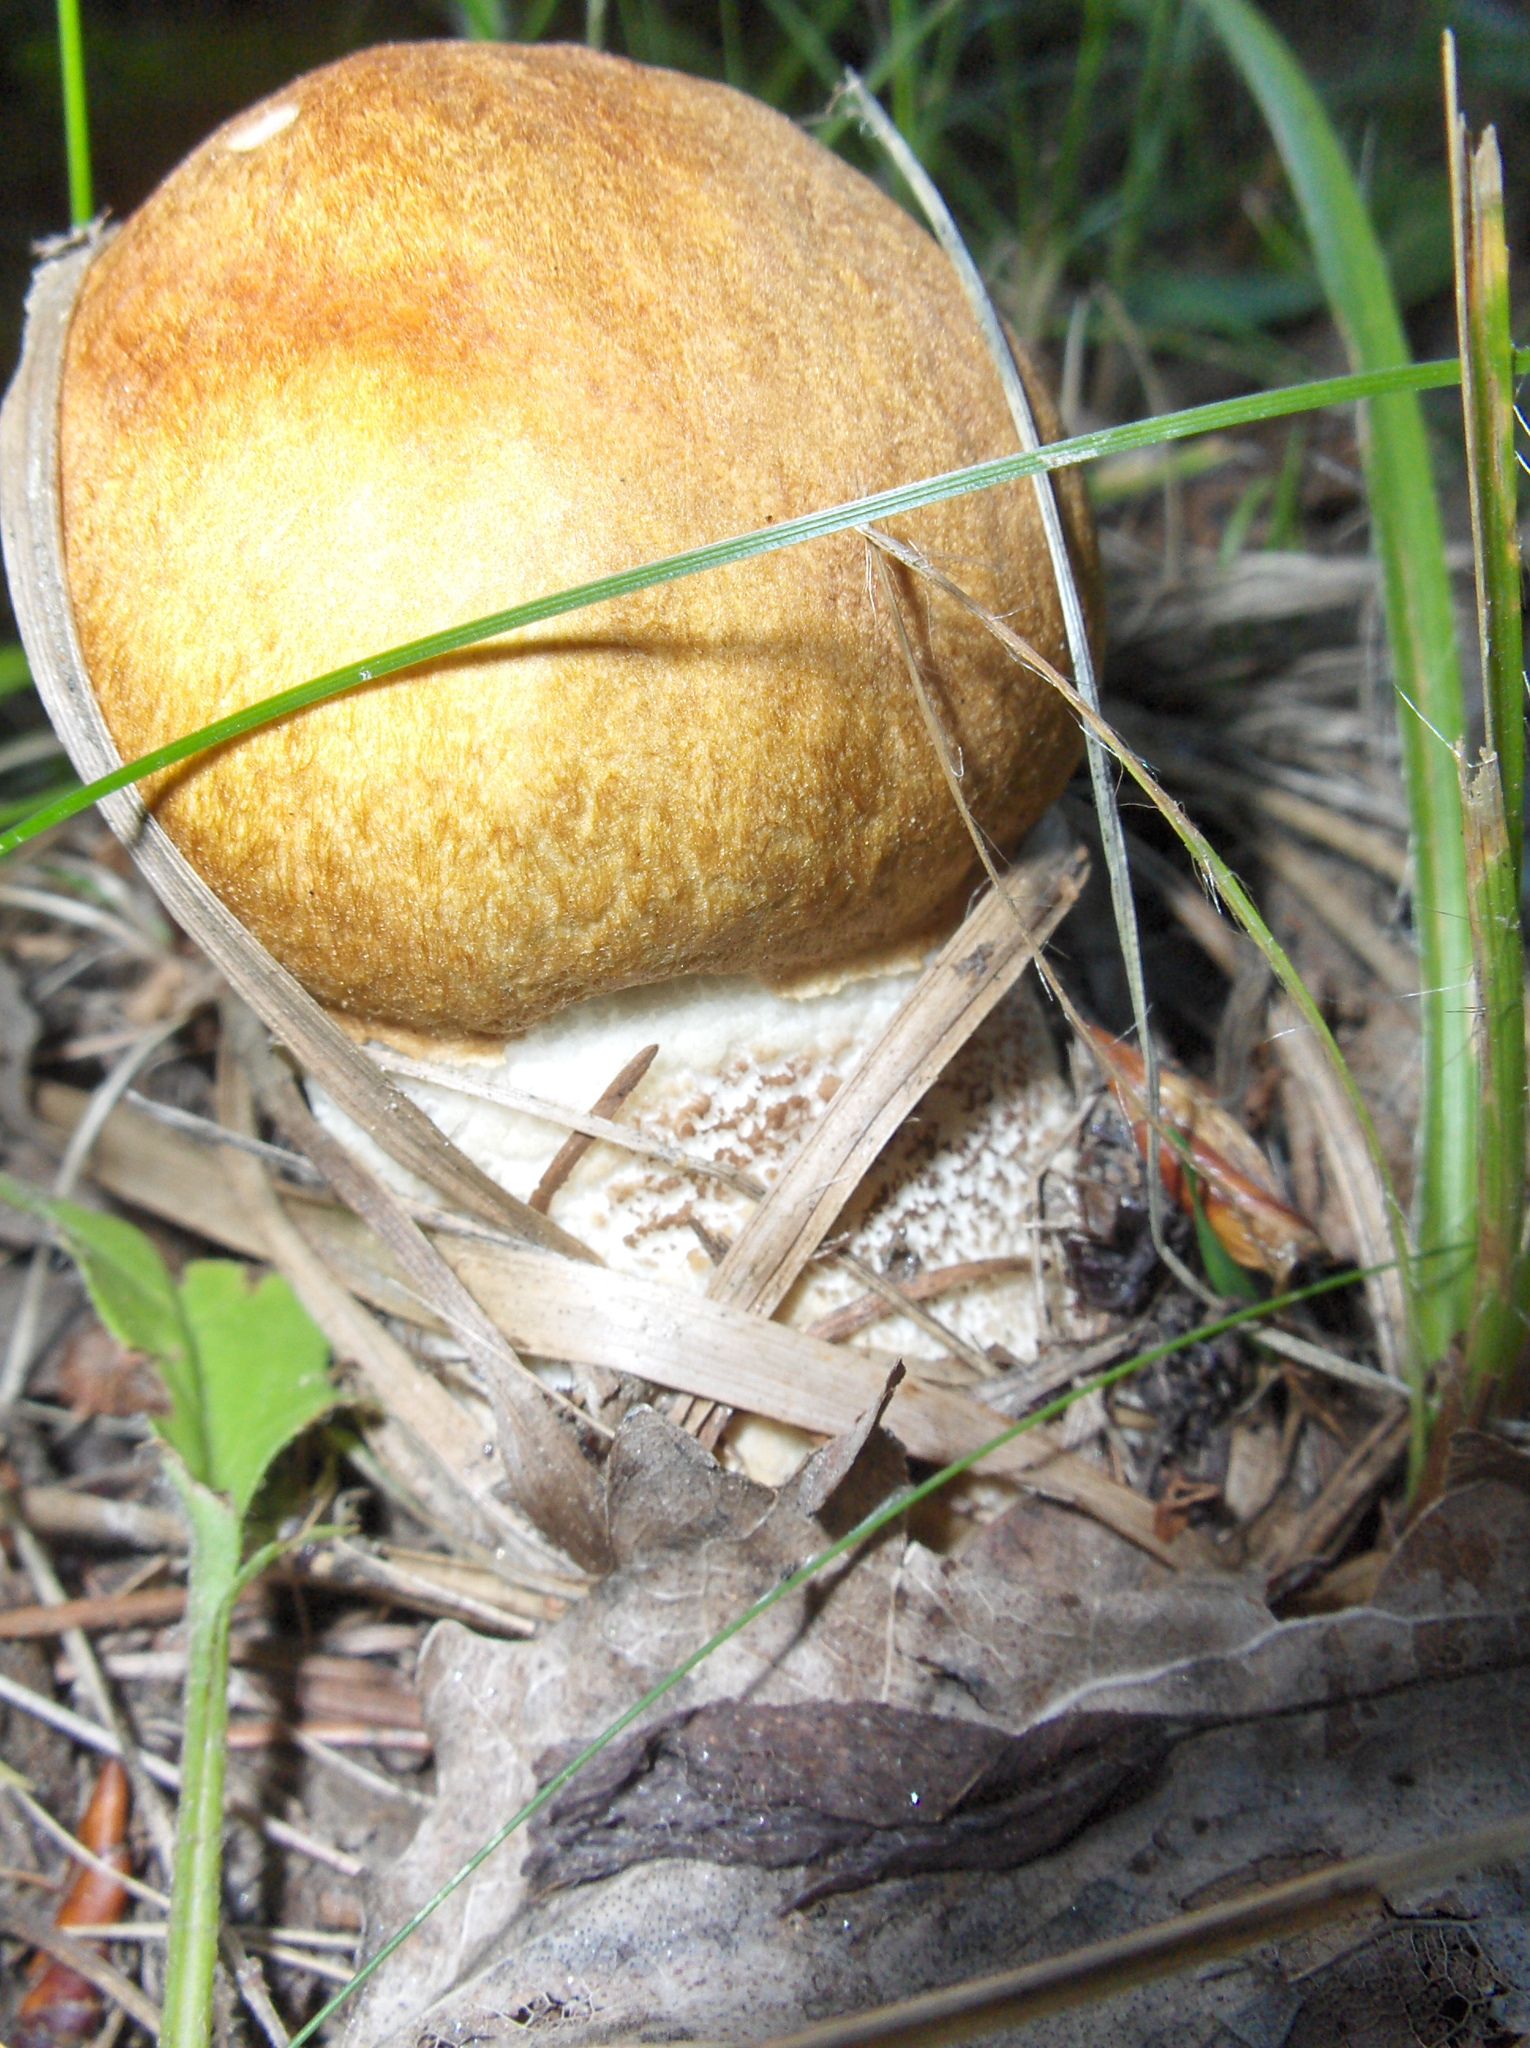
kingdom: Fungi
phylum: Basidiomycota
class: Agaricomycetes
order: Boletales
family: Boletaceae
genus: Leccinum
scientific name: Leccinum albostipitatum
